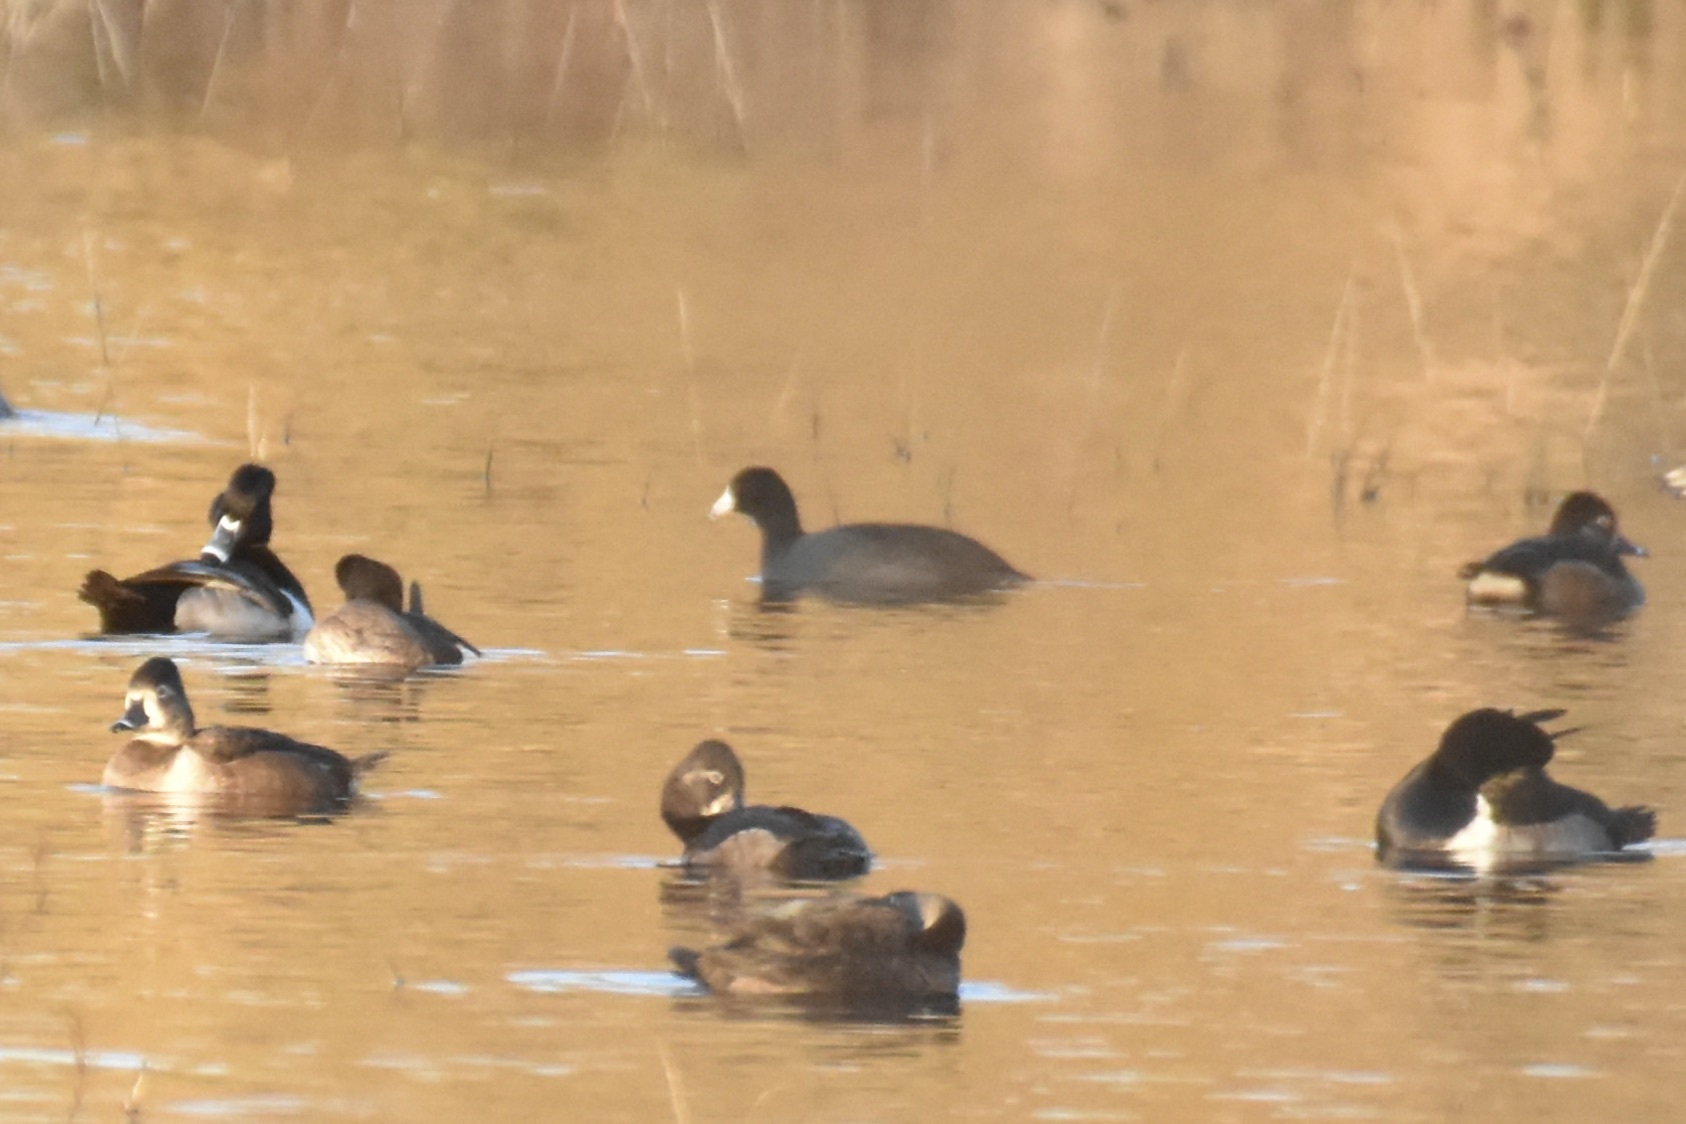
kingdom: Animalia
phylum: Chordata
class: Aves
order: Gruiformes
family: Rallidae
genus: Fulica
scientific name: Fulica americana
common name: American coot
